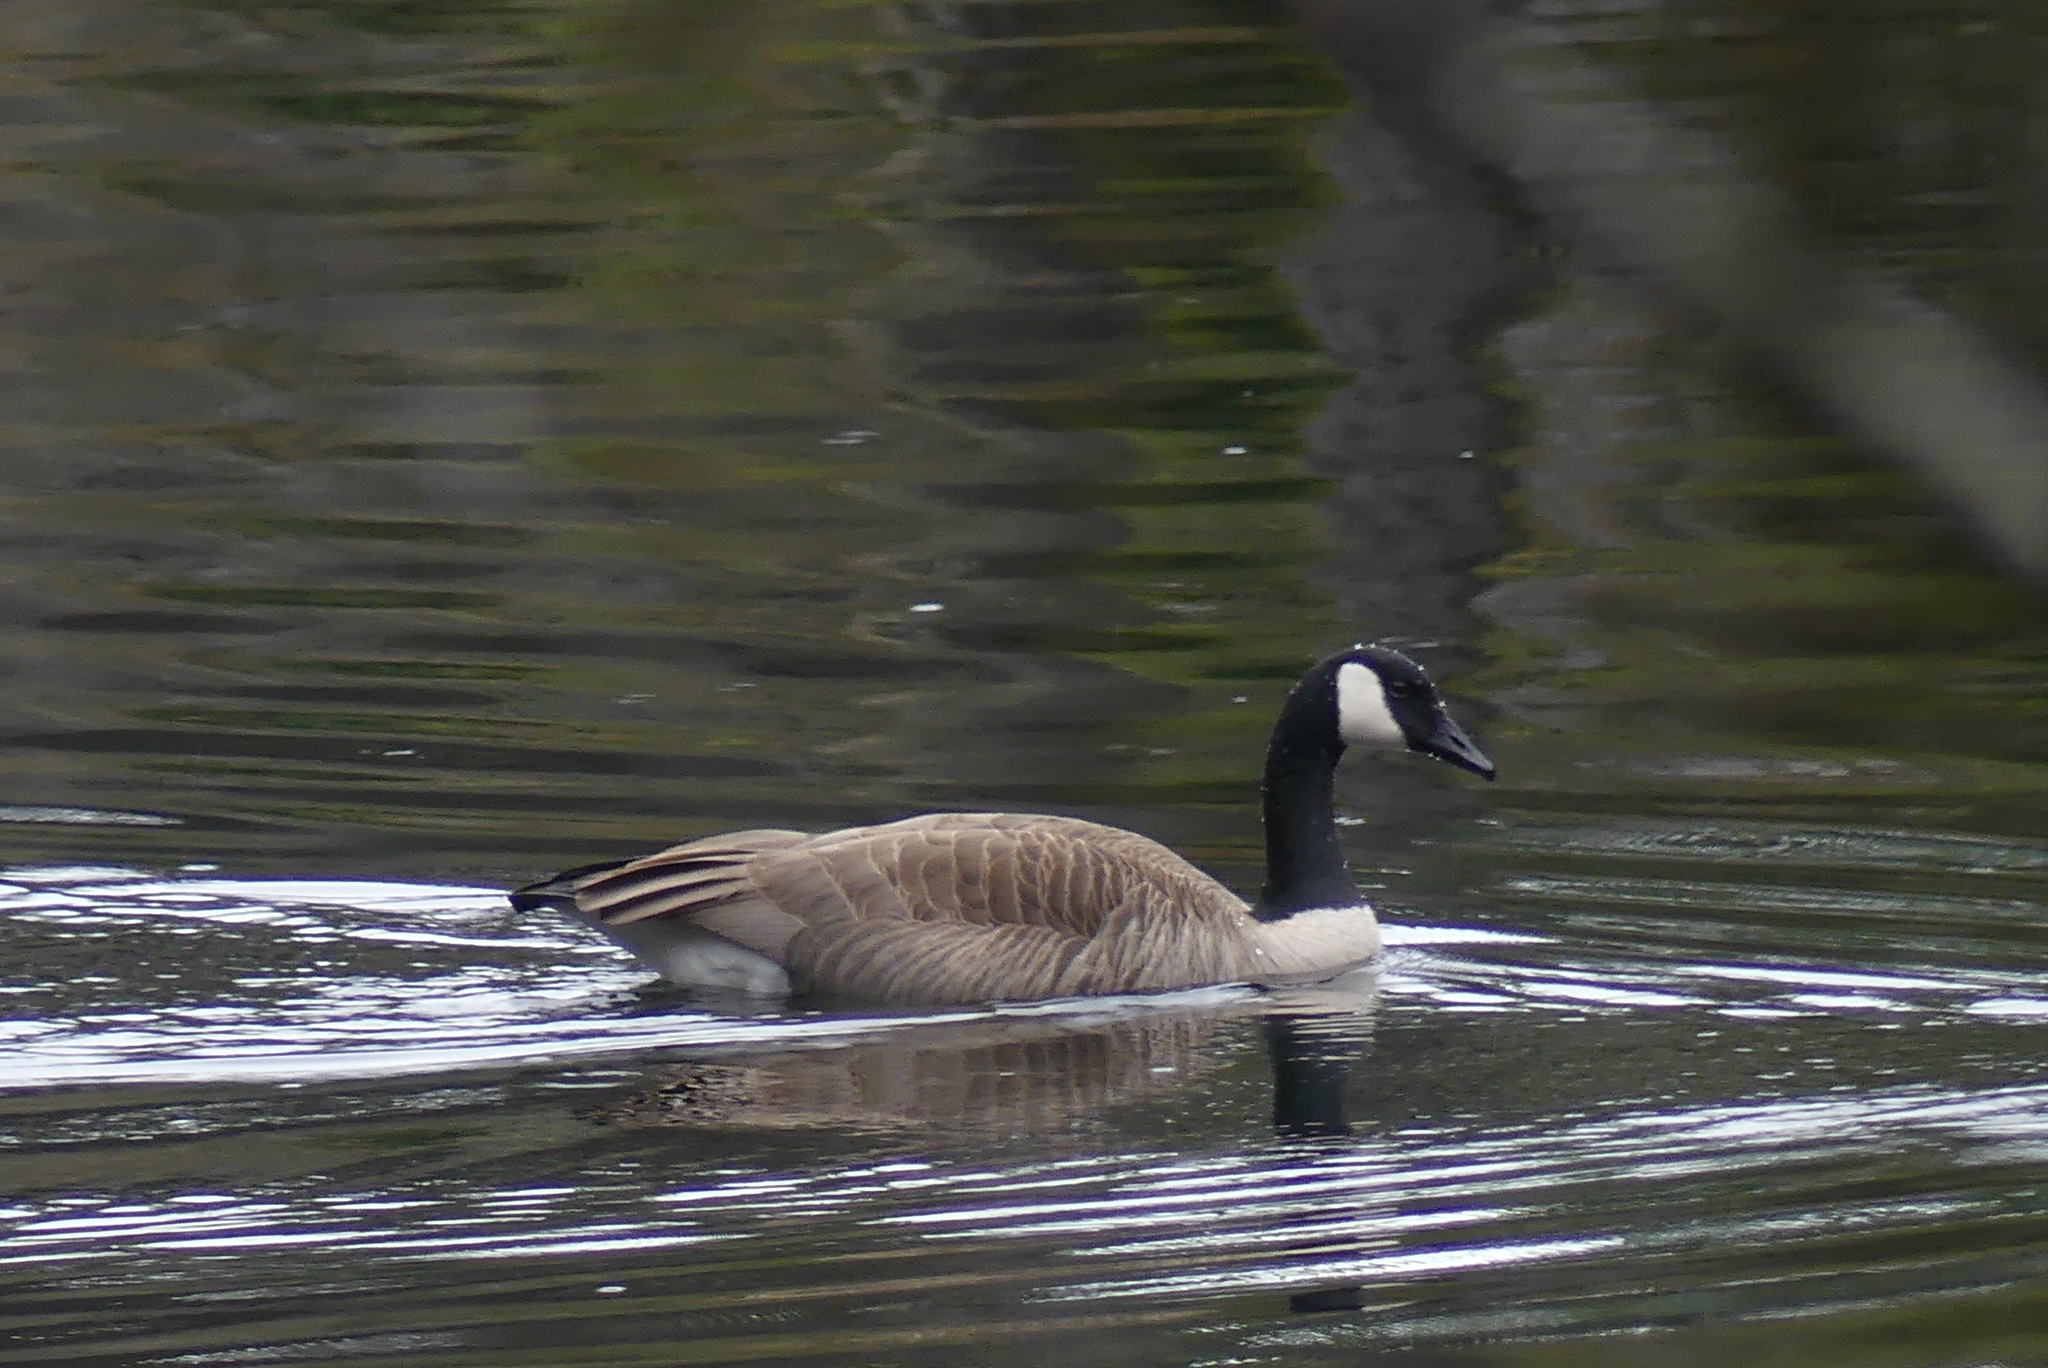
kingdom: Animalia
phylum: Chordata
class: Aves
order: Anseriformes
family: Anatidae
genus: Branta
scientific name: Branta canadensis
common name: Canada goose
